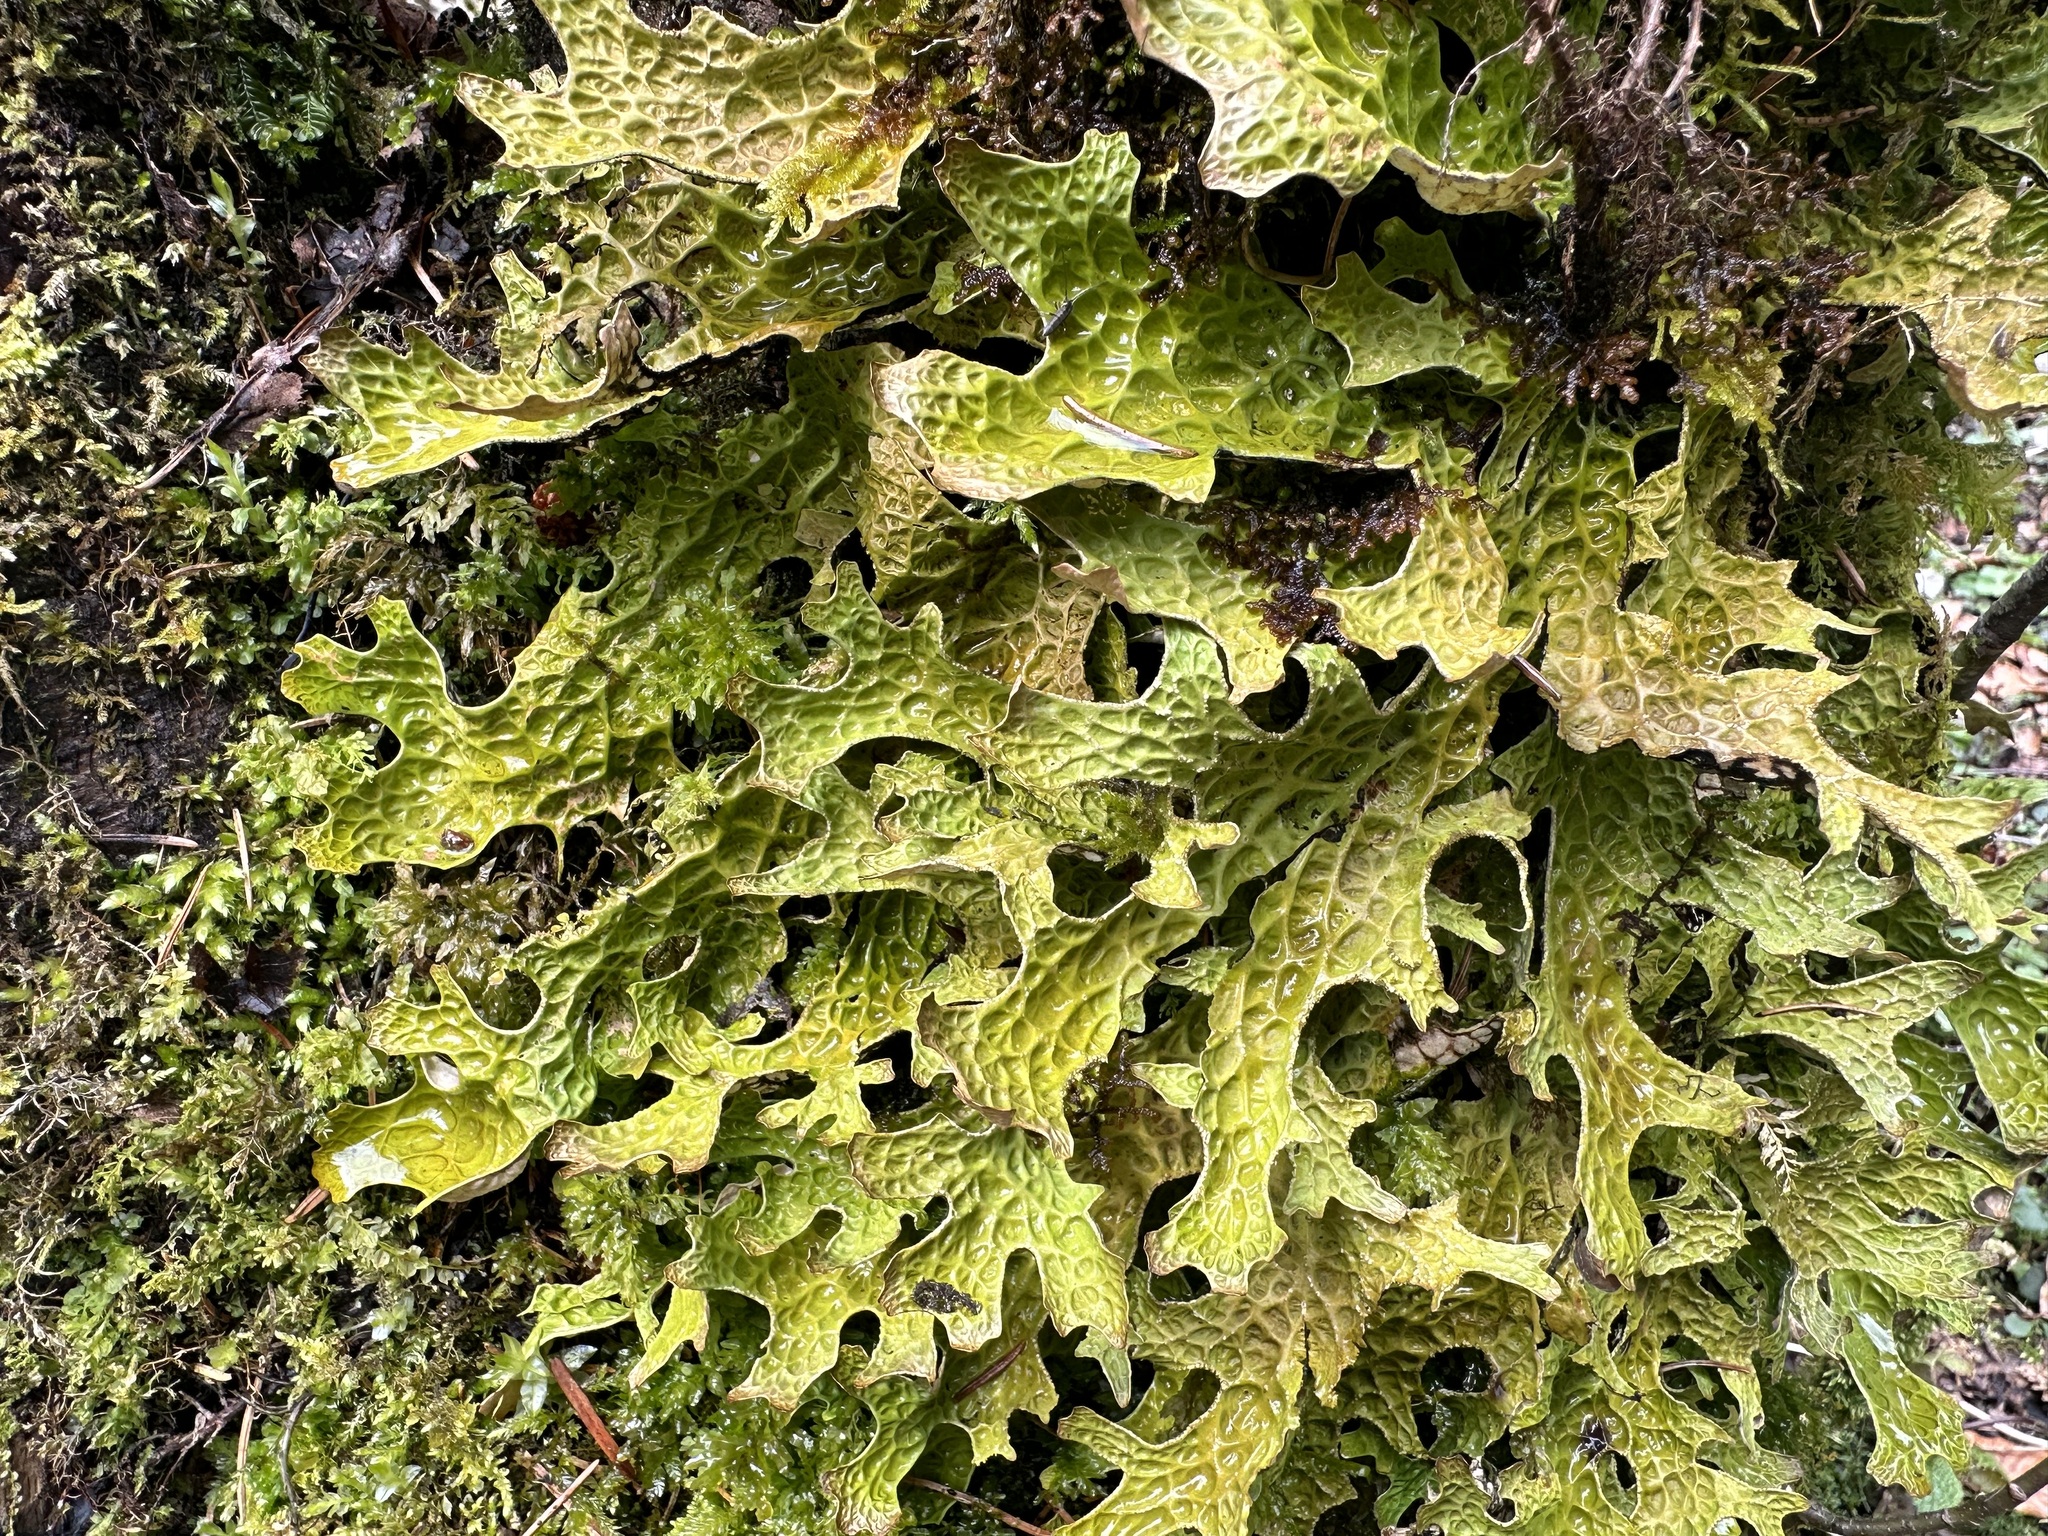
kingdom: Fungi
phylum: Ascomycota
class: Lecanoromycetes
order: Peltigerales
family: Lobariaceae
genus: Lobaria
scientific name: Lobaria pulmonaria
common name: Lungwort
